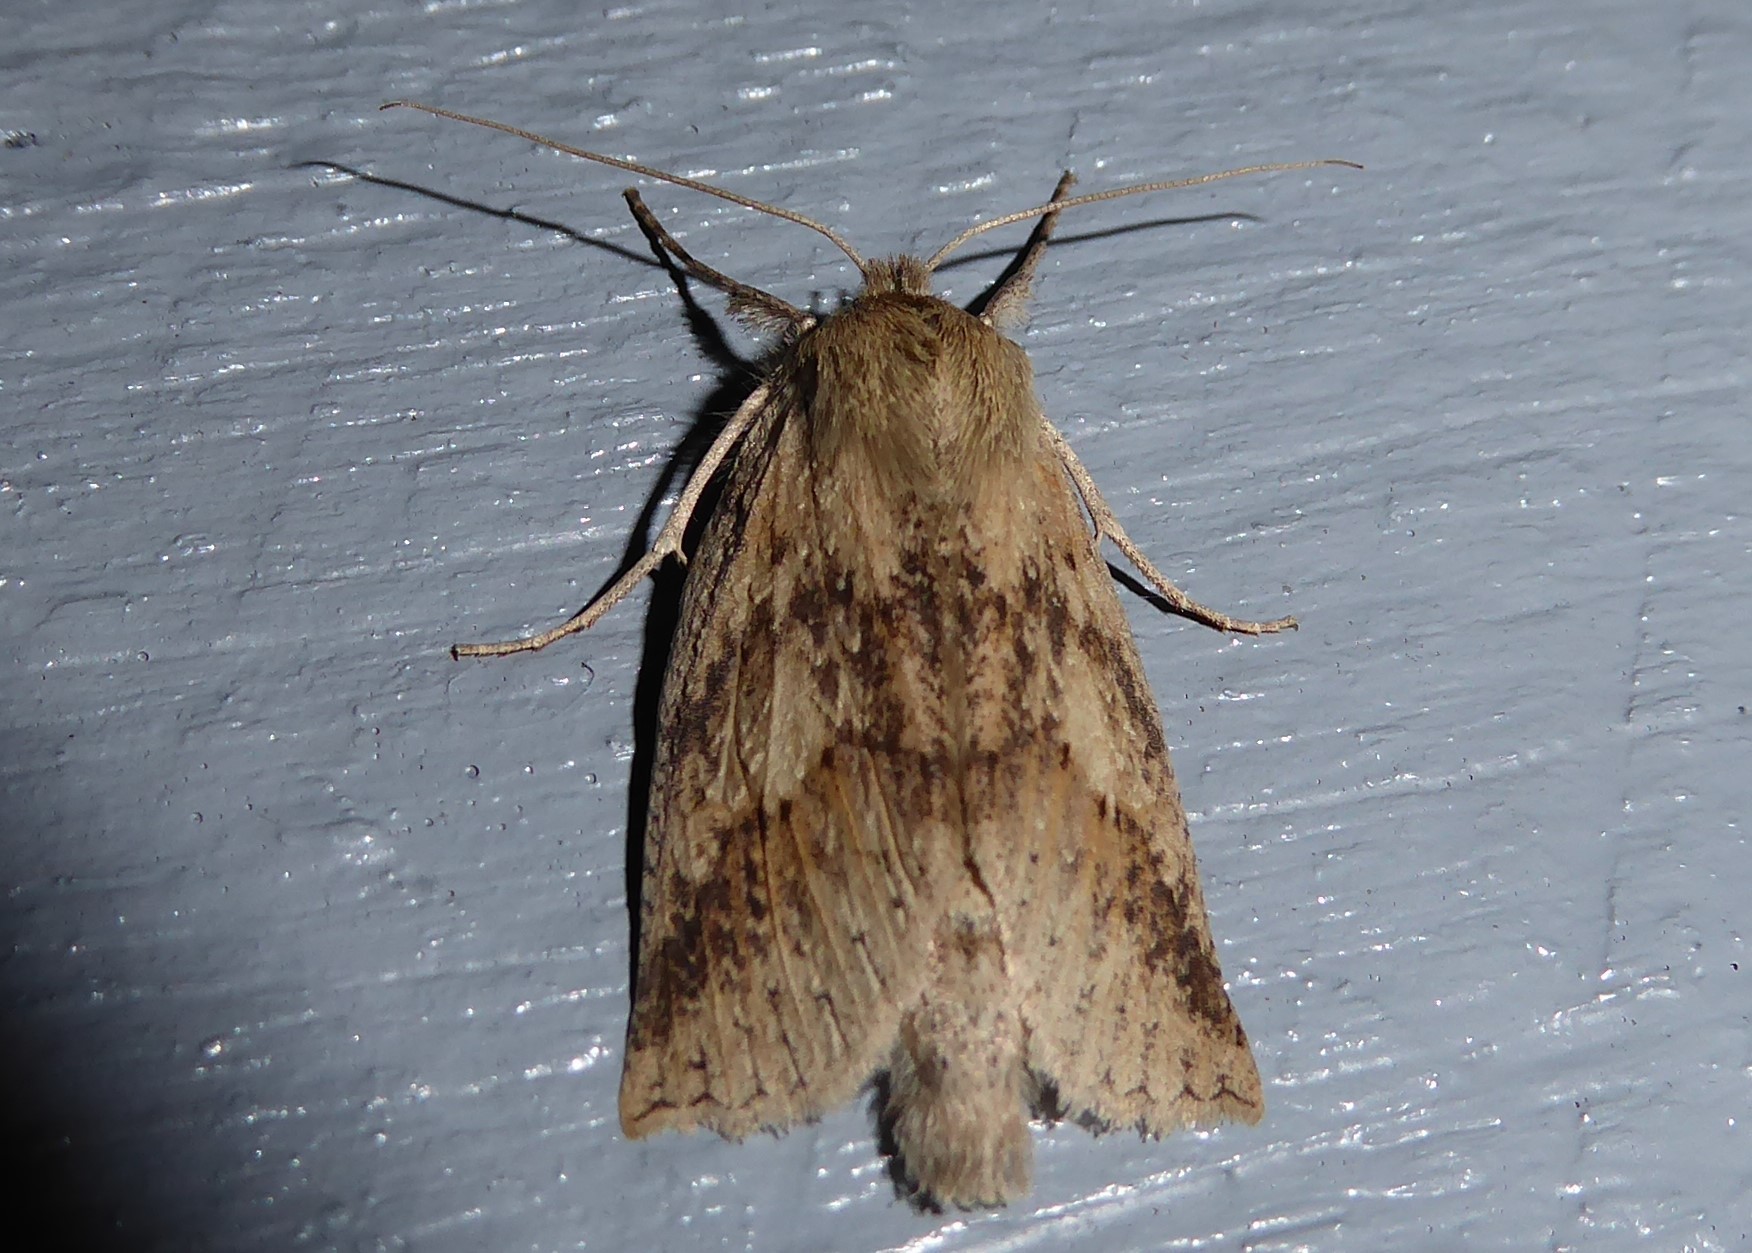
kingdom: Animalia
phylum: Arthropoda
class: Insecta
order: Lepidoptera
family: Geometridae
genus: Declana
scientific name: Declana leptomera
